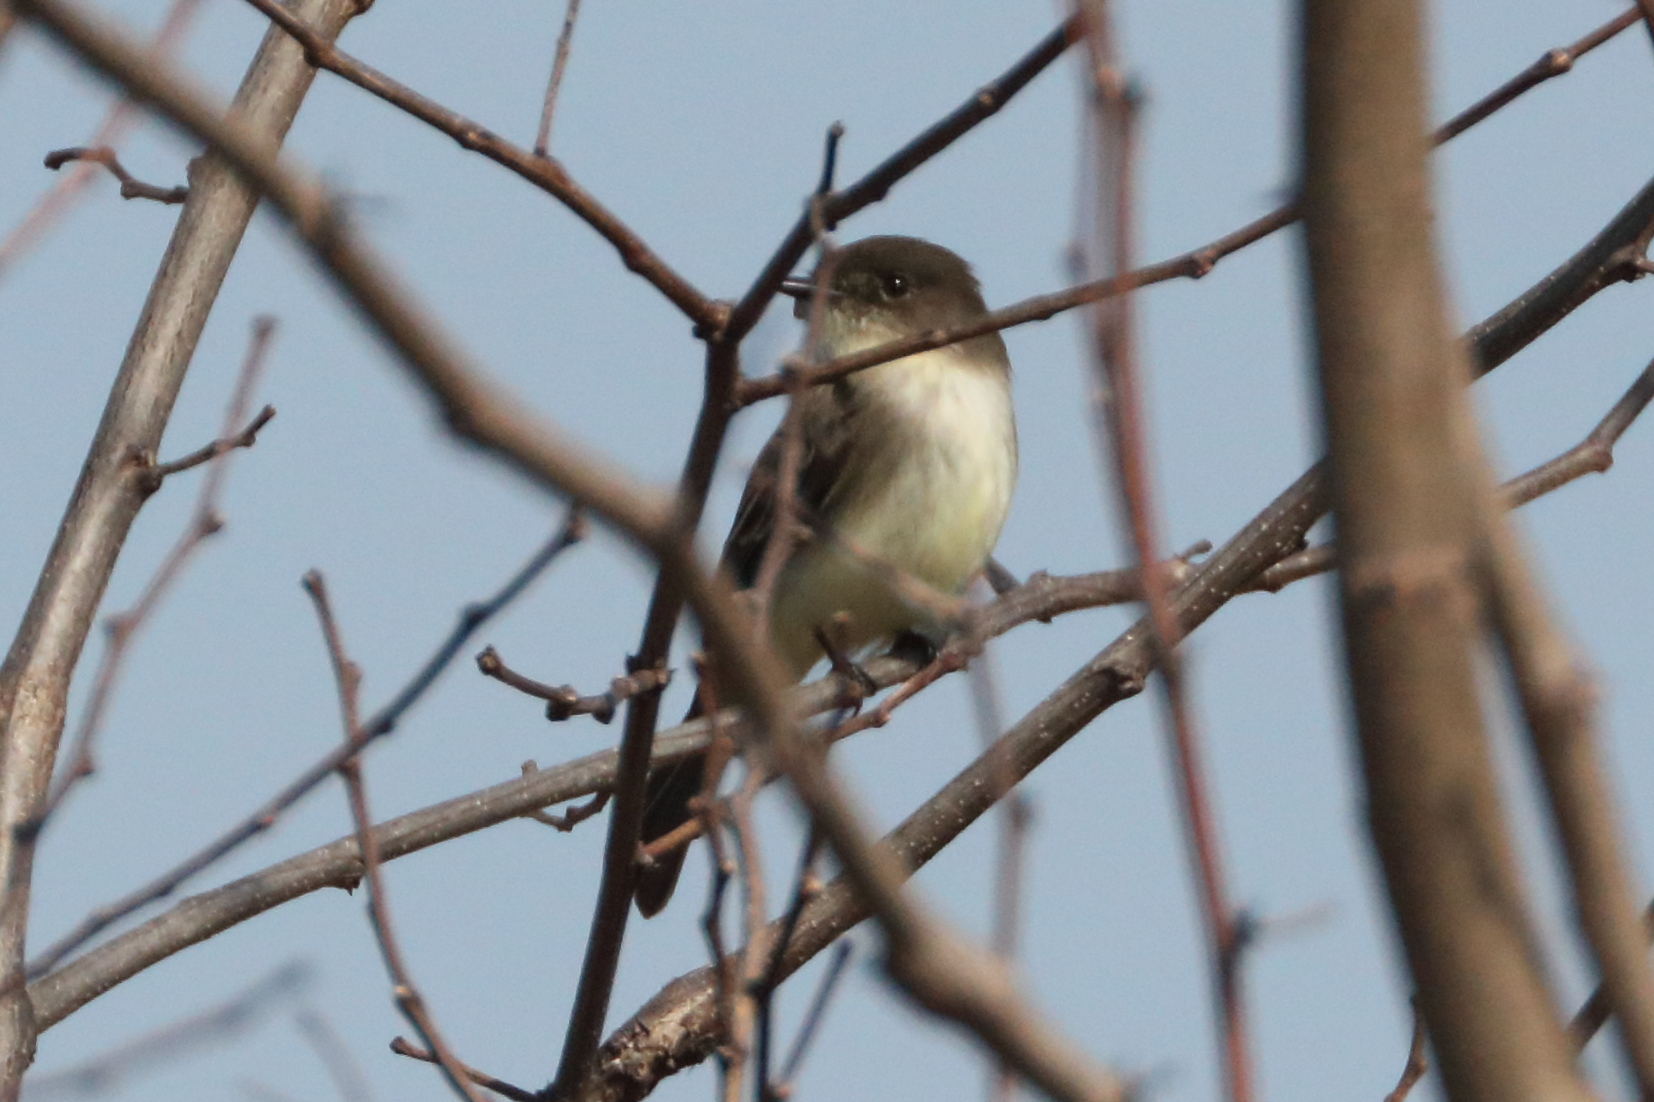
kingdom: Animalia
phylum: Chordata
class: Aves
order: Passeriformes
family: Tyrannidae
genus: Sayornis
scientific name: Sayornis phoebe
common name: Eastern phoebe
